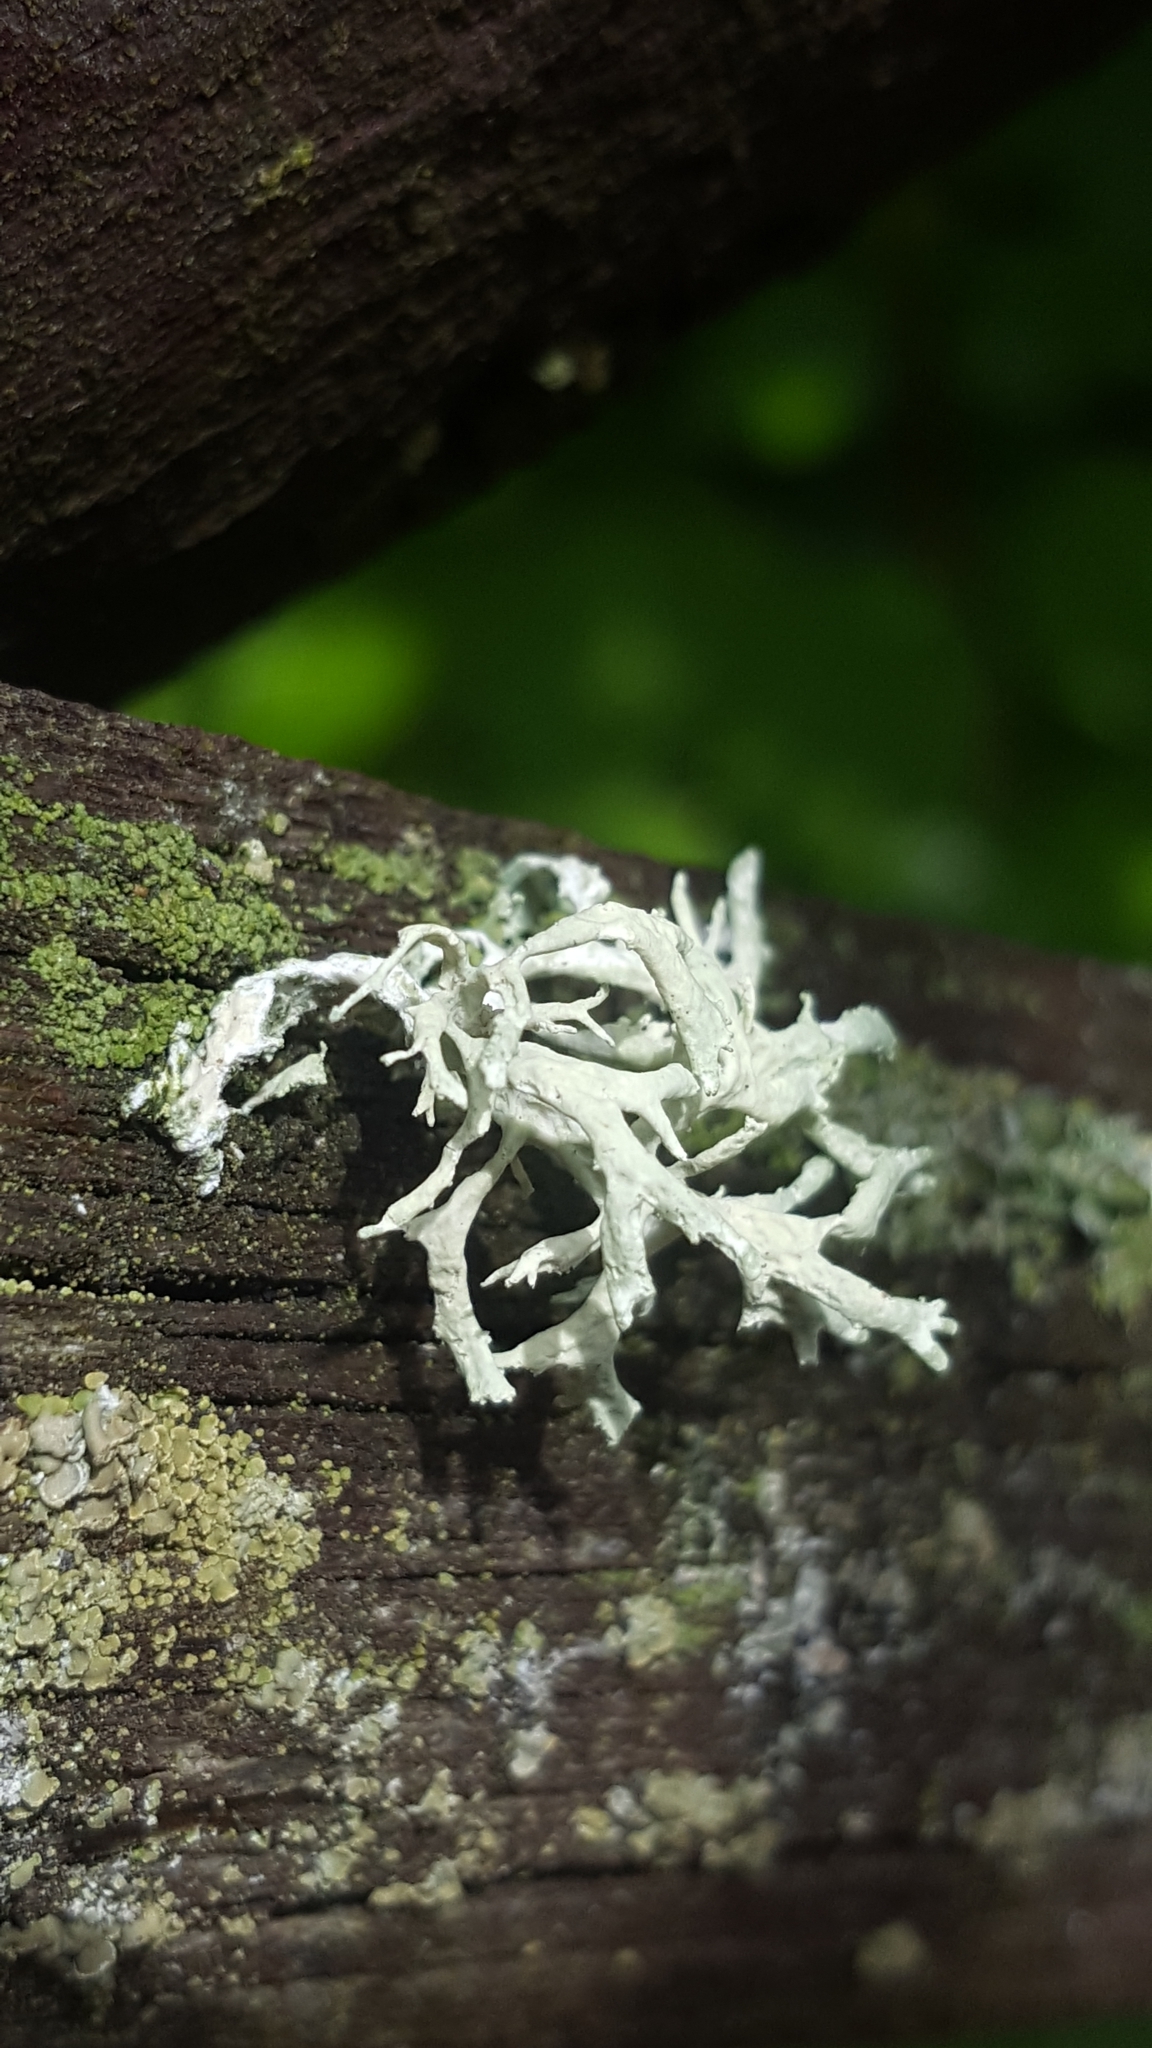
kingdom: Fungi
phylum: Ascomycota
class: Lecanoromycetes
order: Lecanorales
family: Parmeliaceae
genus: Evernia
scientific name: Evernia prunastri
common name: Oak moss
